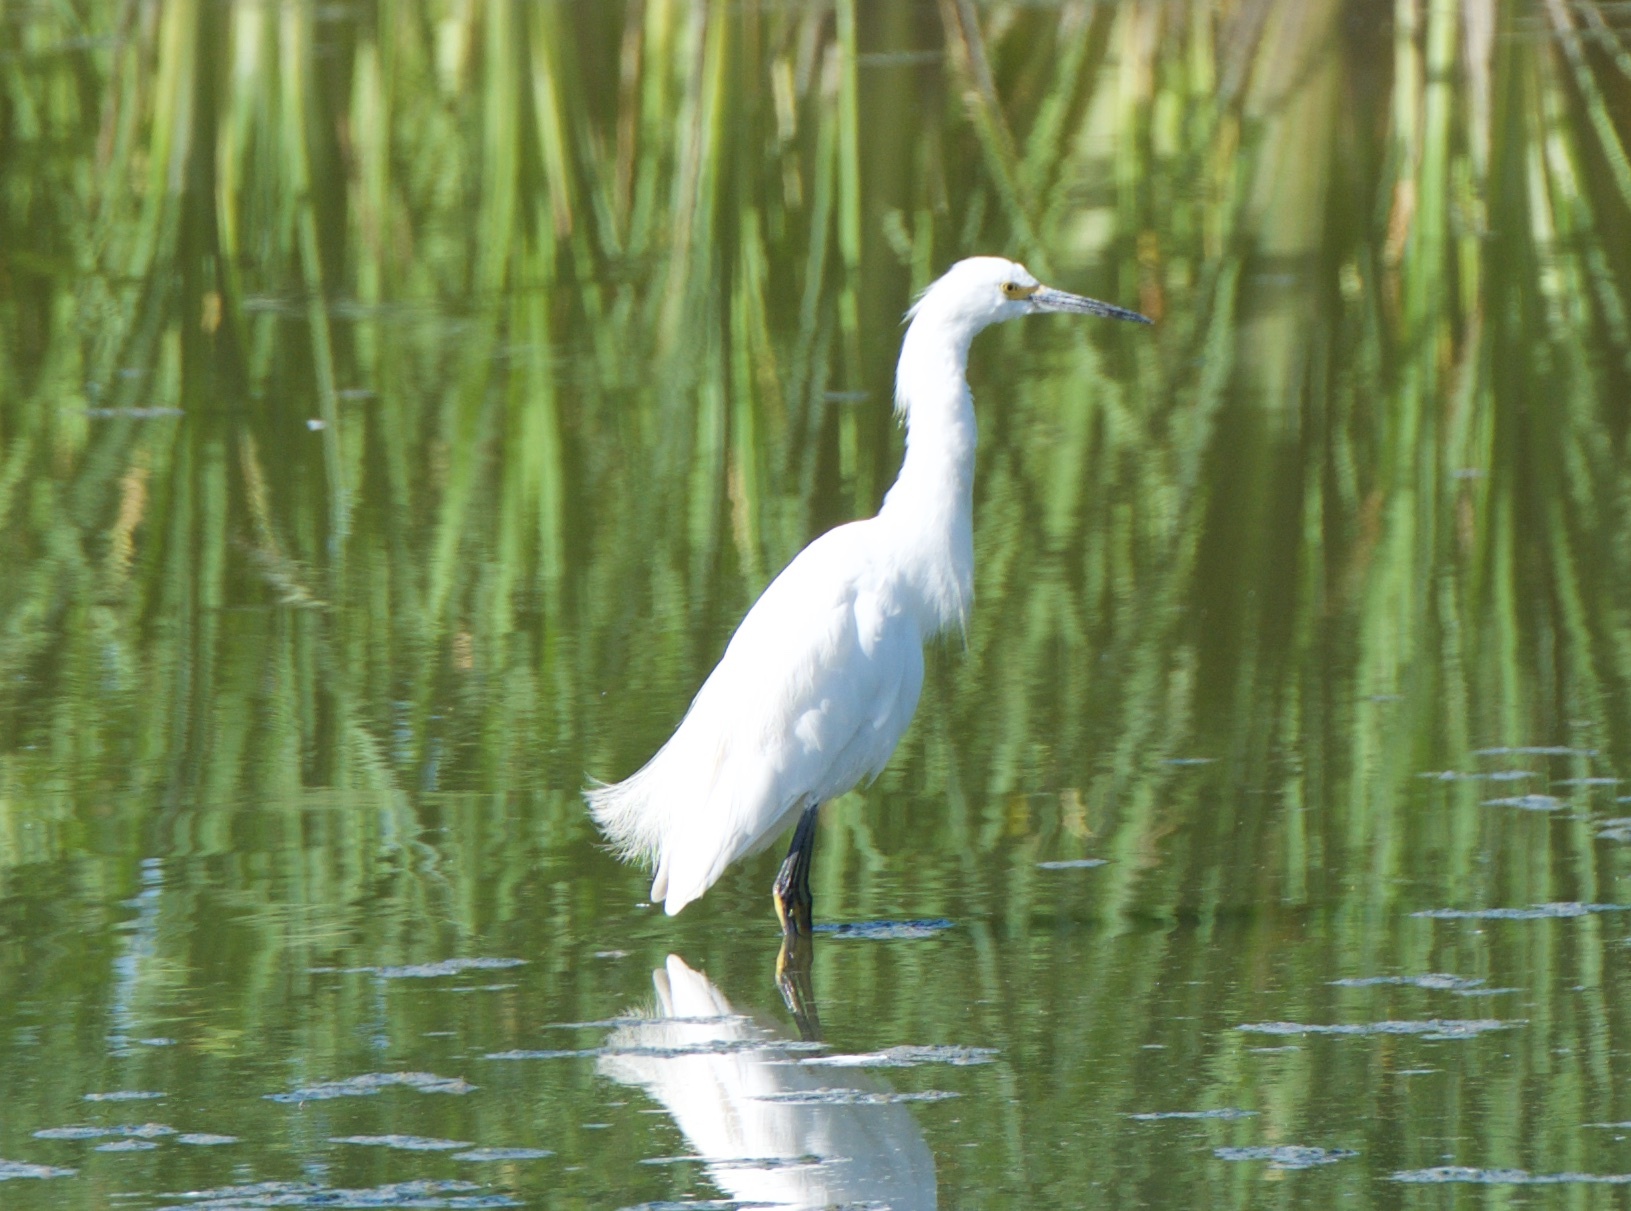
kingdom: Animalia
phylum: Chordata
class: Aves
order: Pelecaniformes
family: Ardeidae
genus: Egretta
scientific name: Egretta thula
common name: Snowy egret
